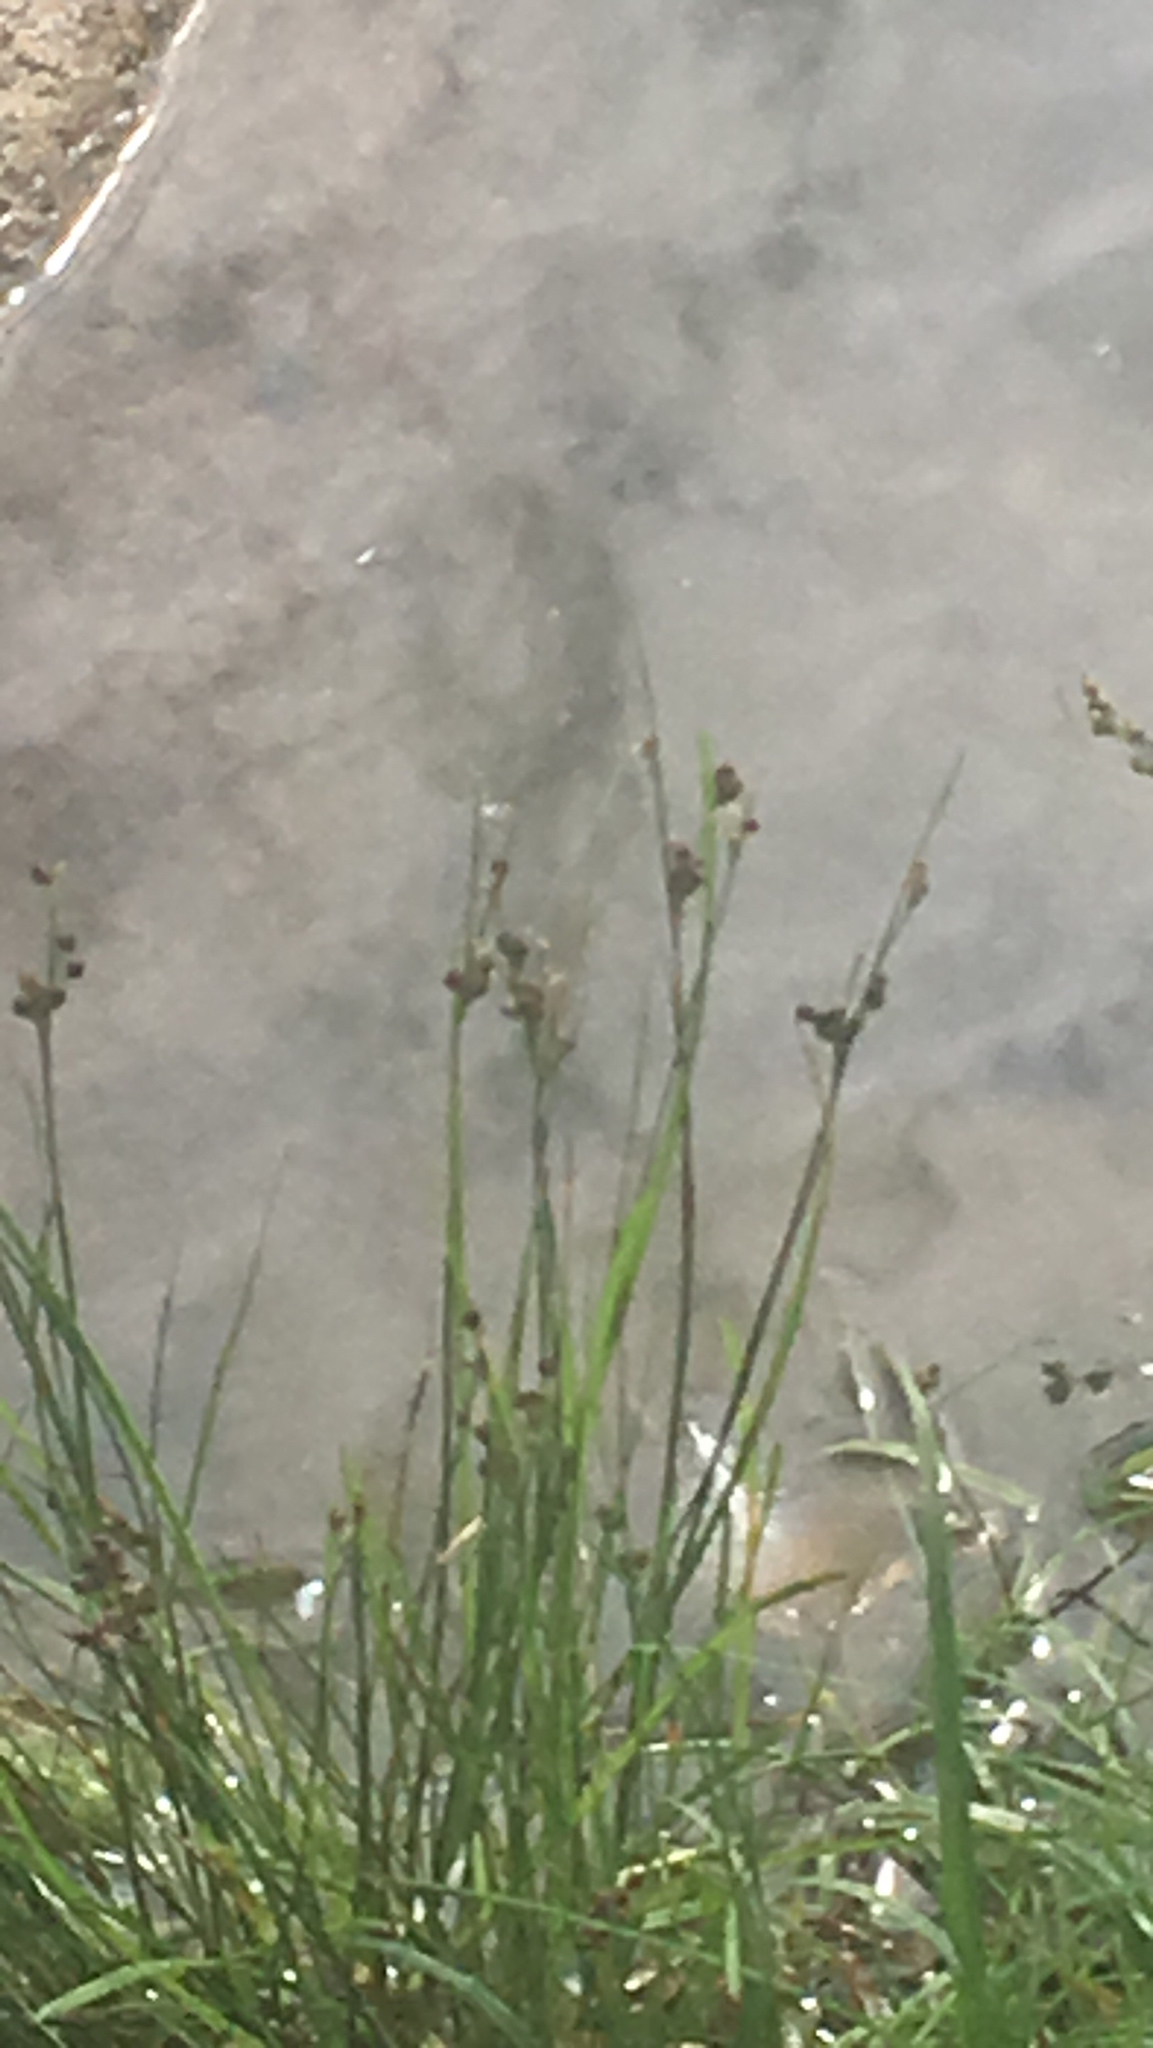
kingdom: Plantae
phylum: Tracheophyta
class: Liliopsida
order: Poales
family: Juncaceae
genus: Juncus
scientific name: Juncus compressus
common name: Round-fruited rush
